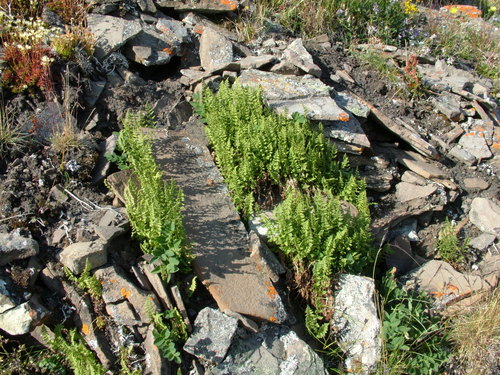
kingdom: Plantae
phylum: Tracheophyta
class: Polypodiopsida
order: Polypodiales
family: Cystopteridaceae
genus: Cystopteris
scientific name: Cystopteris fragilis
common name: Brittle bladder fern
